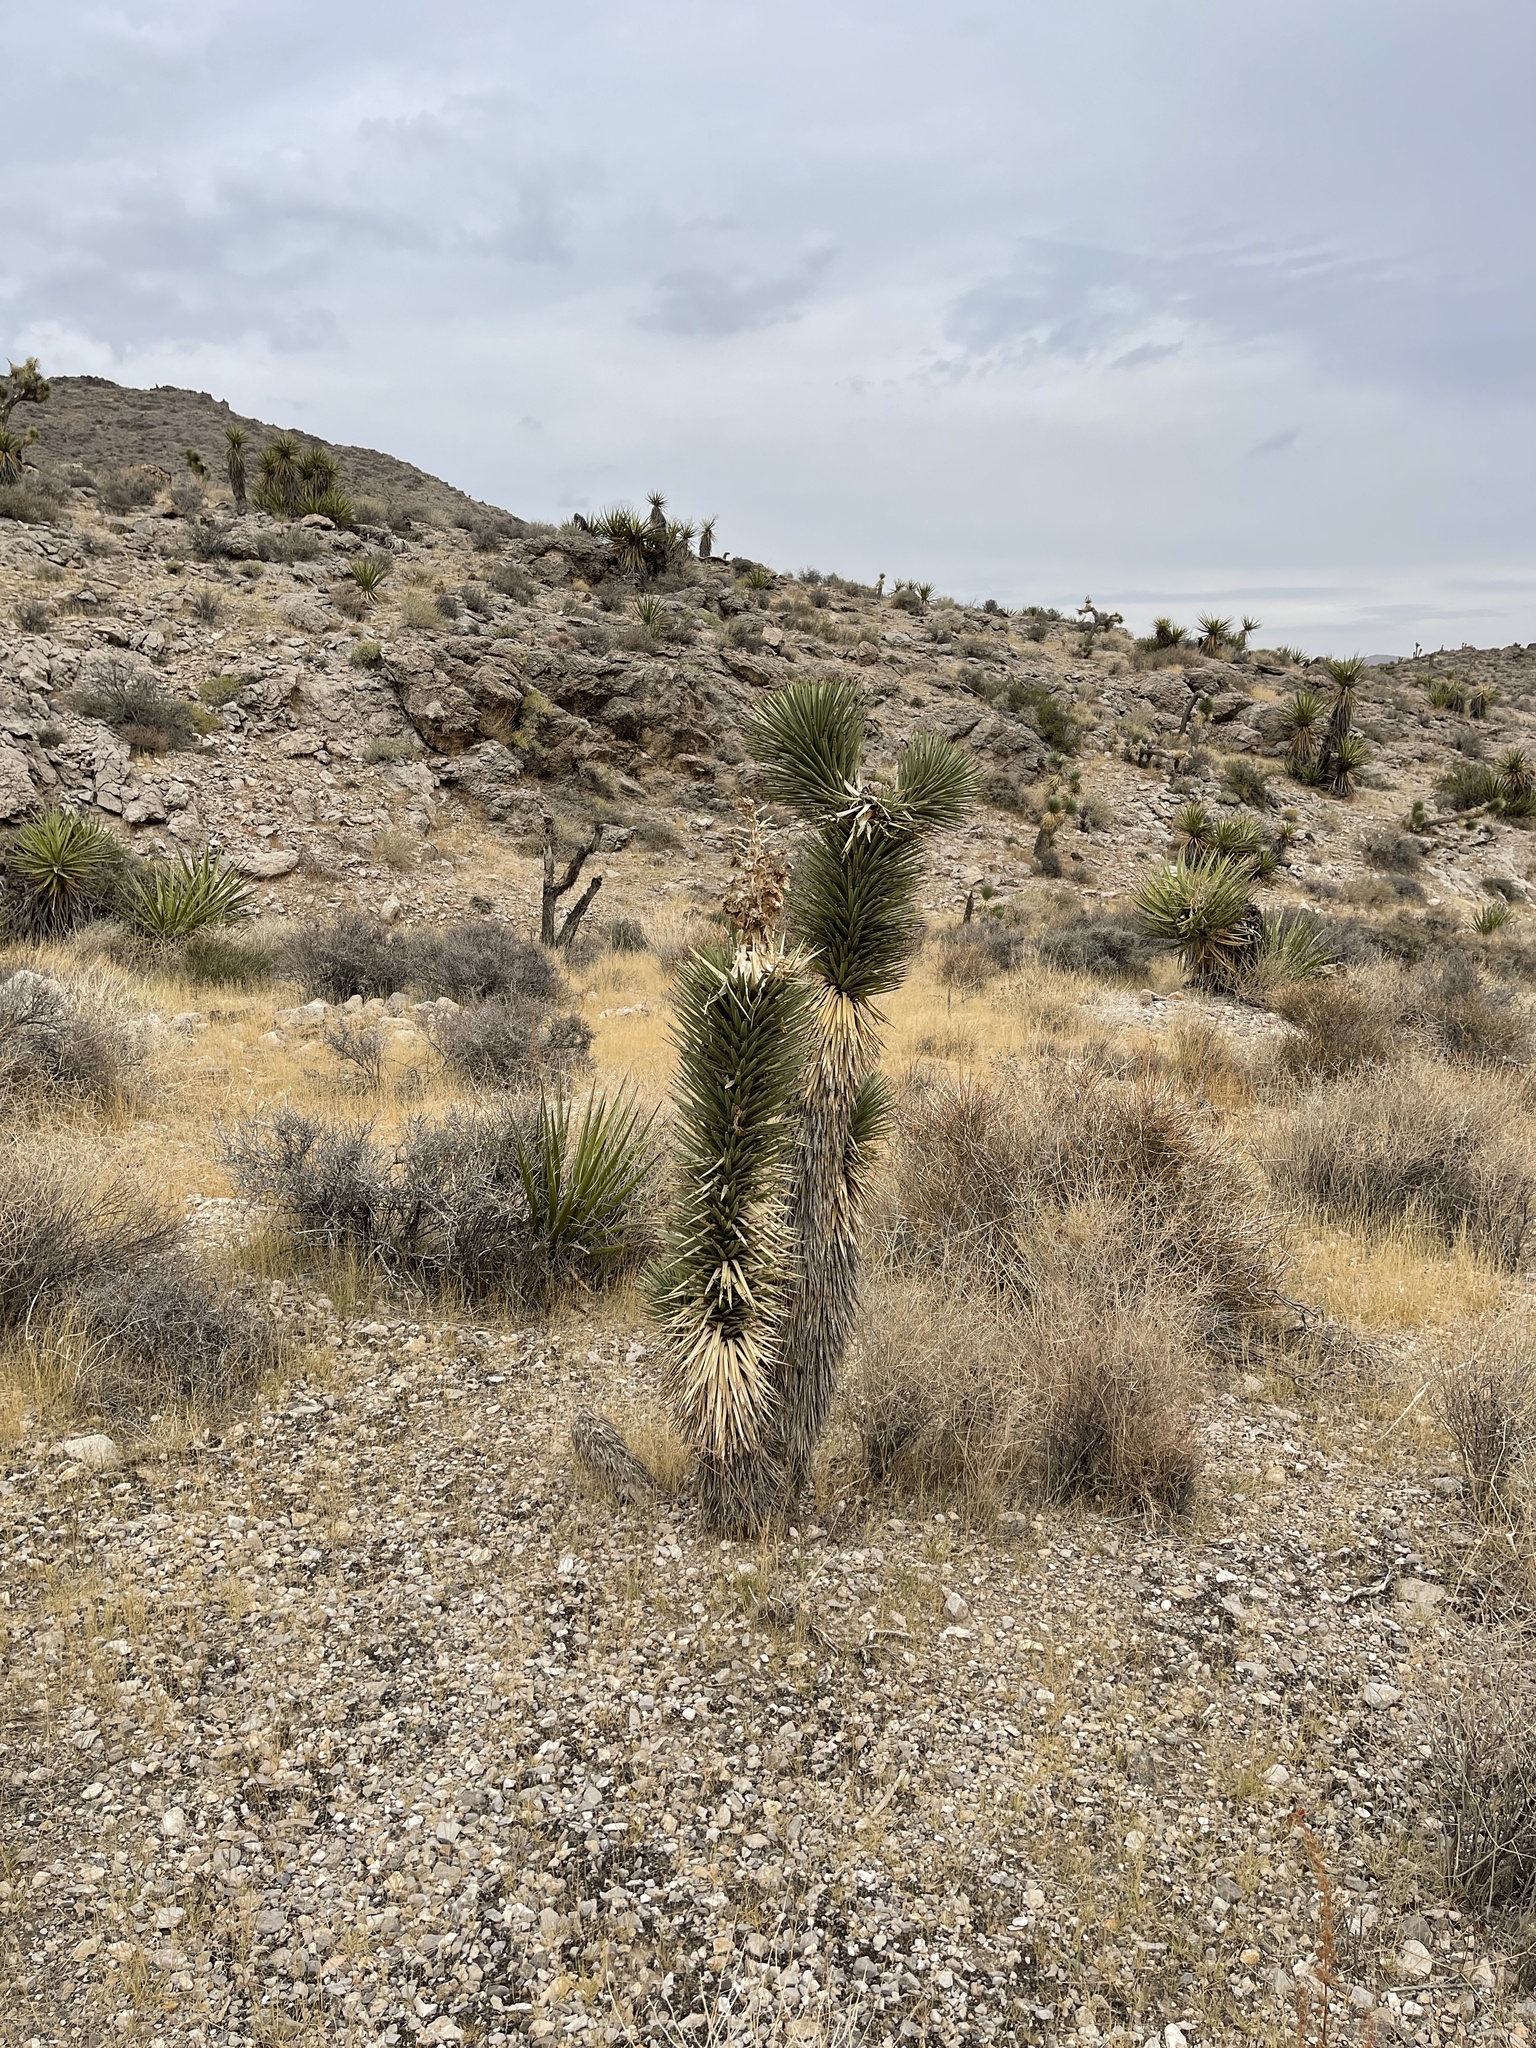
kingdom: Plantae
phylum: Tracheophyta
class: Liliopsida
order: Asparagales
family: Asparagaceae
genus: Yucca
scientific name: Yucca brevifolia
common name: Joshua tree
